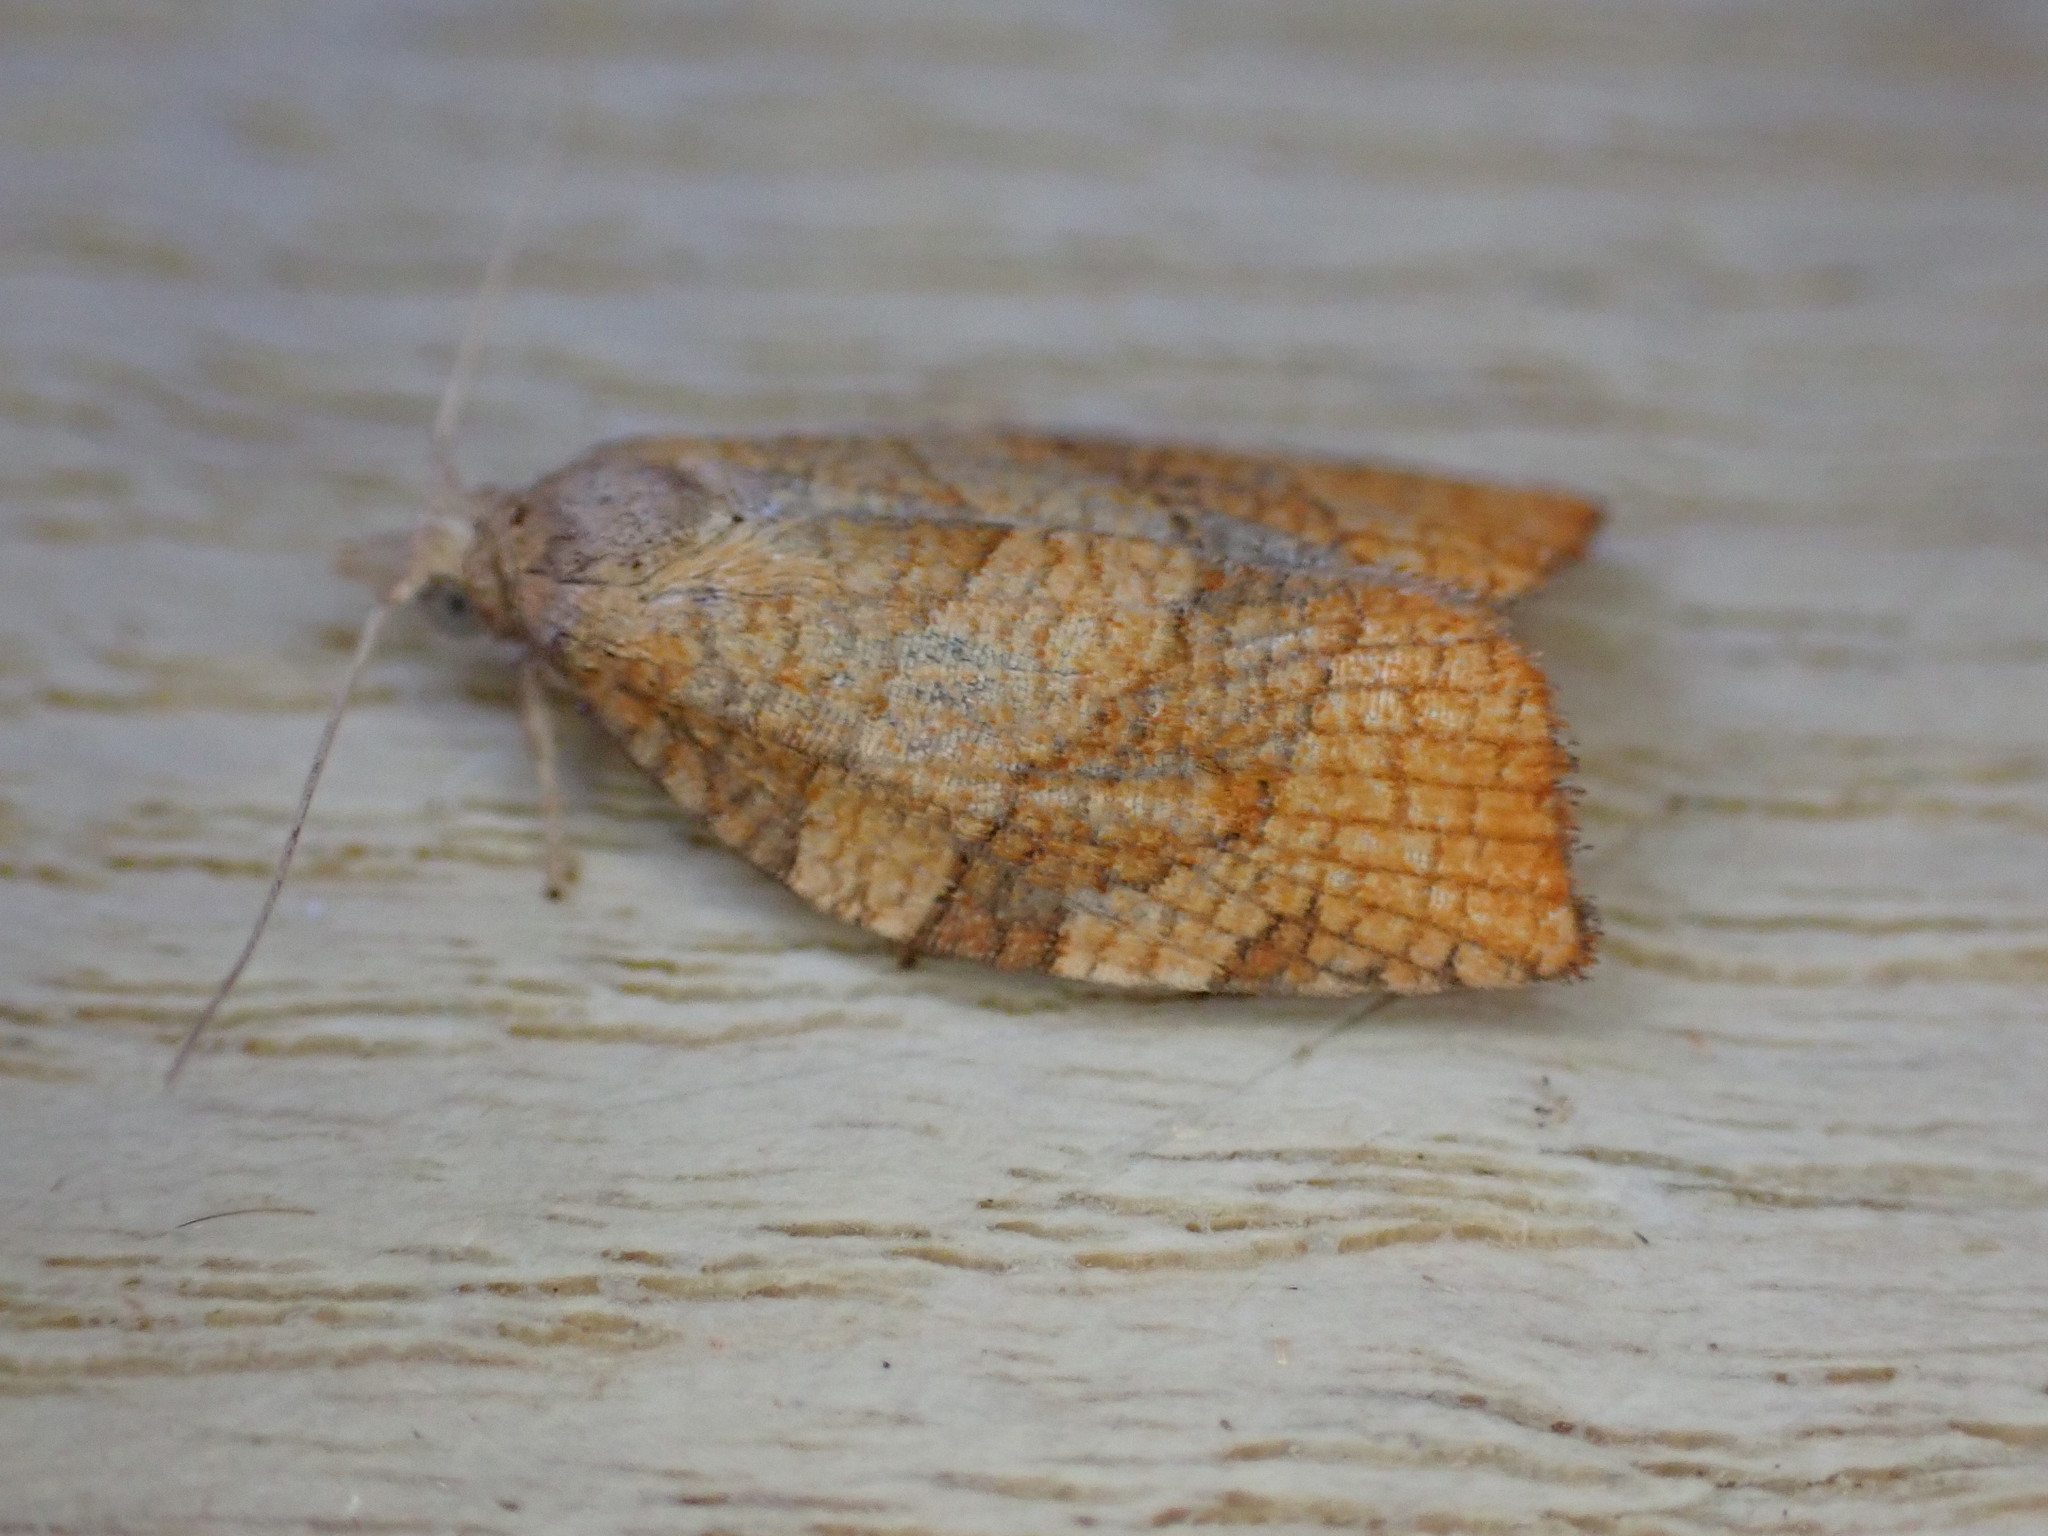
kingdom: Animalia
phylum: Arthropoda
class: Insecta
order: Lepidoptera
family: Tortricidae
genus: Pandemis
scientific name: Pandemis corylana
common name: Chequered fruit-tree tortrix
